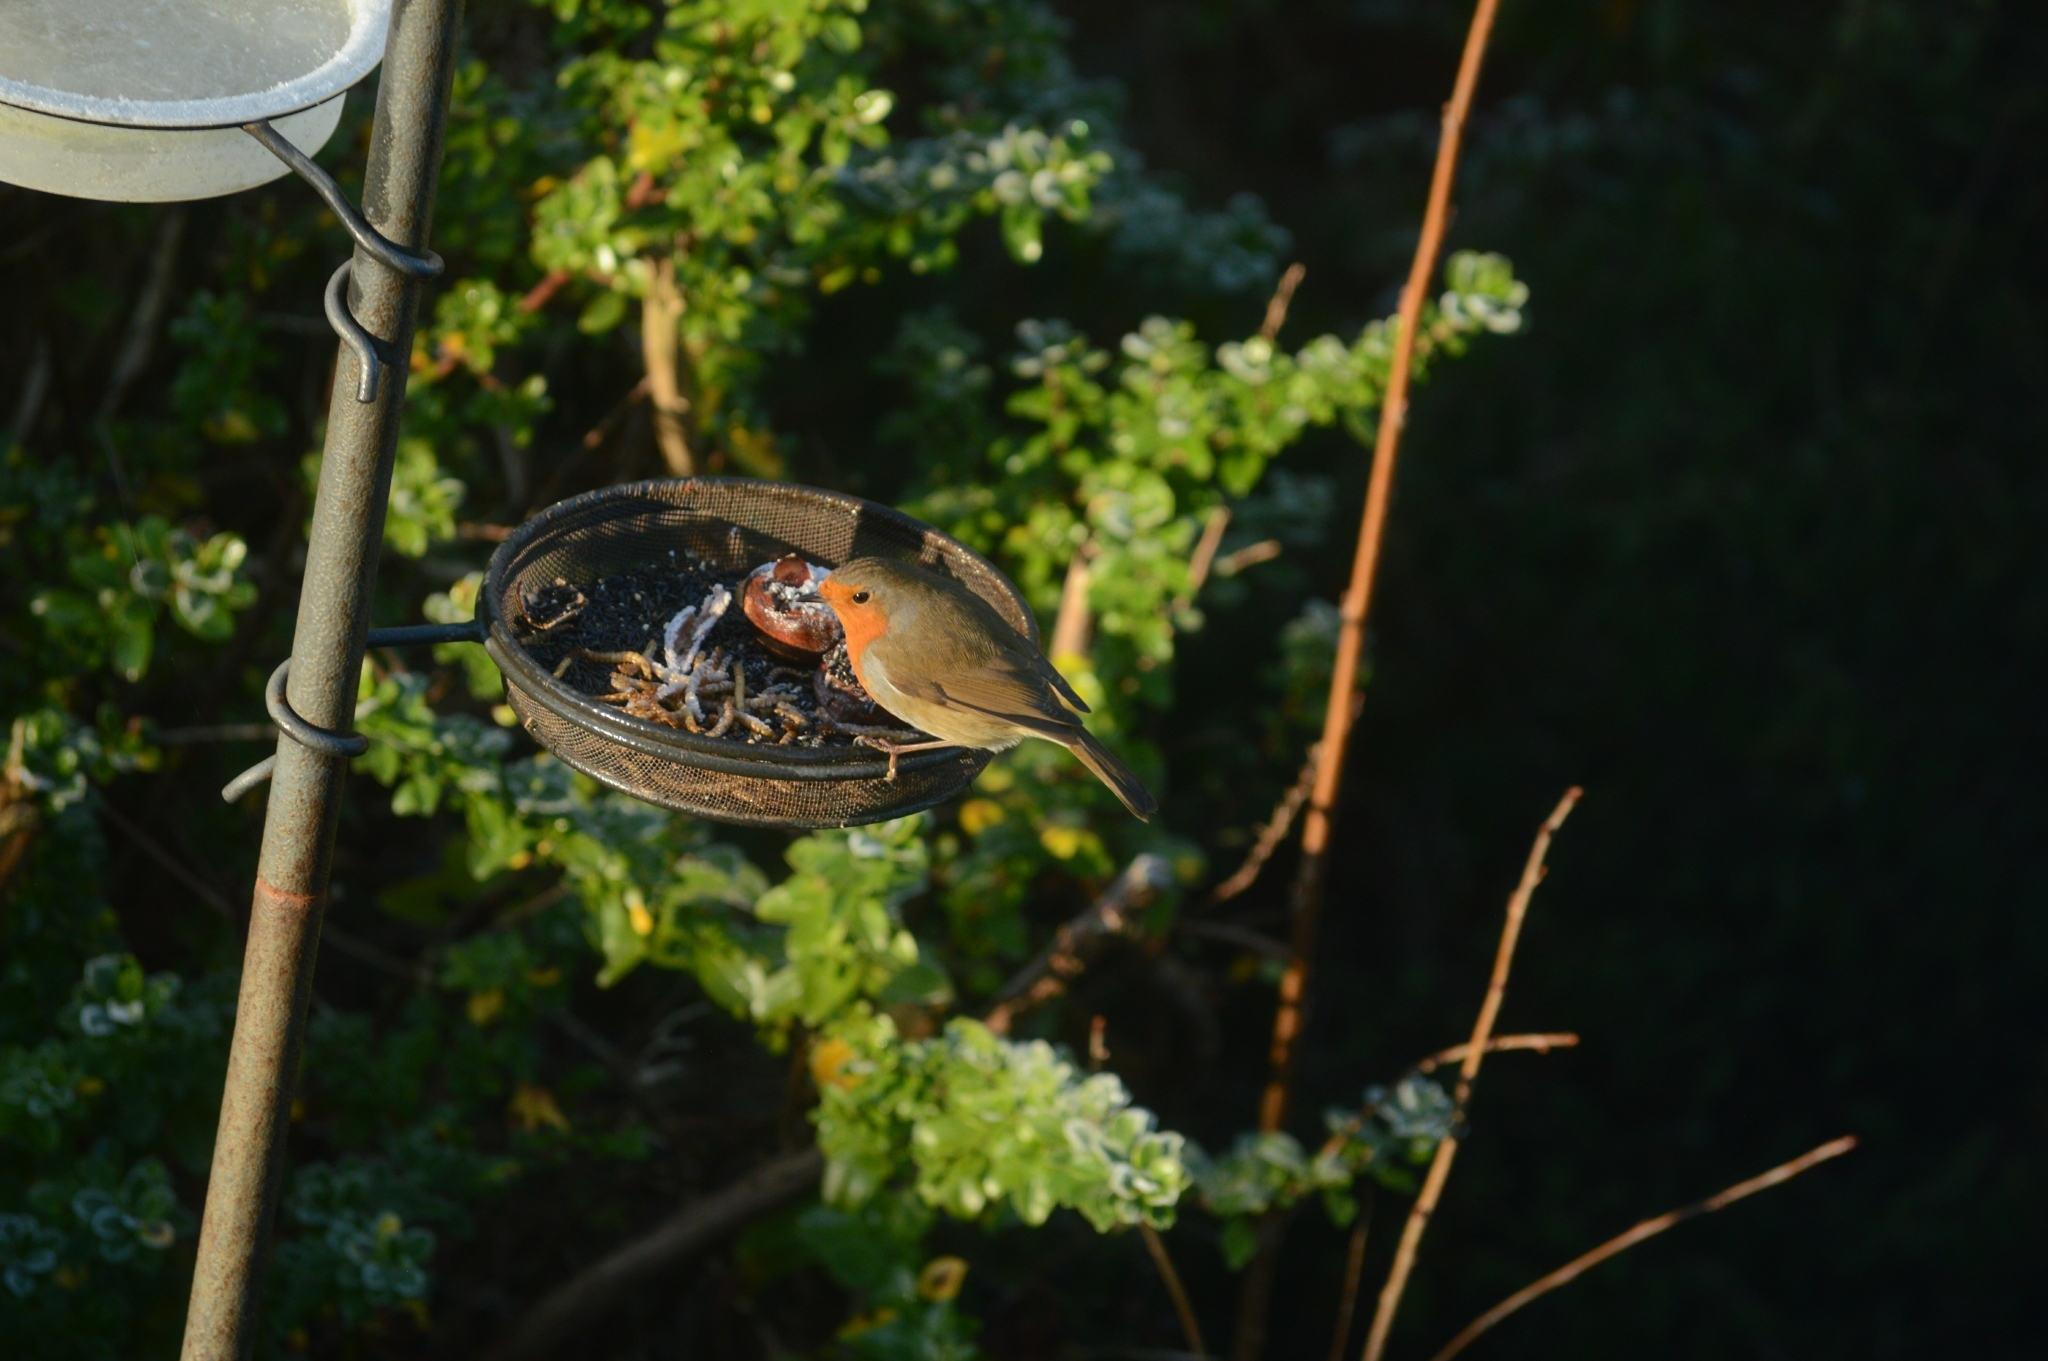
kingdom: Animalia
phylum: Chordata
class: Aves
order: Passeriformes
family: Muscicapidae
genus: Erithacus
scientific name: Erithacus rubecula
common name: European robin
